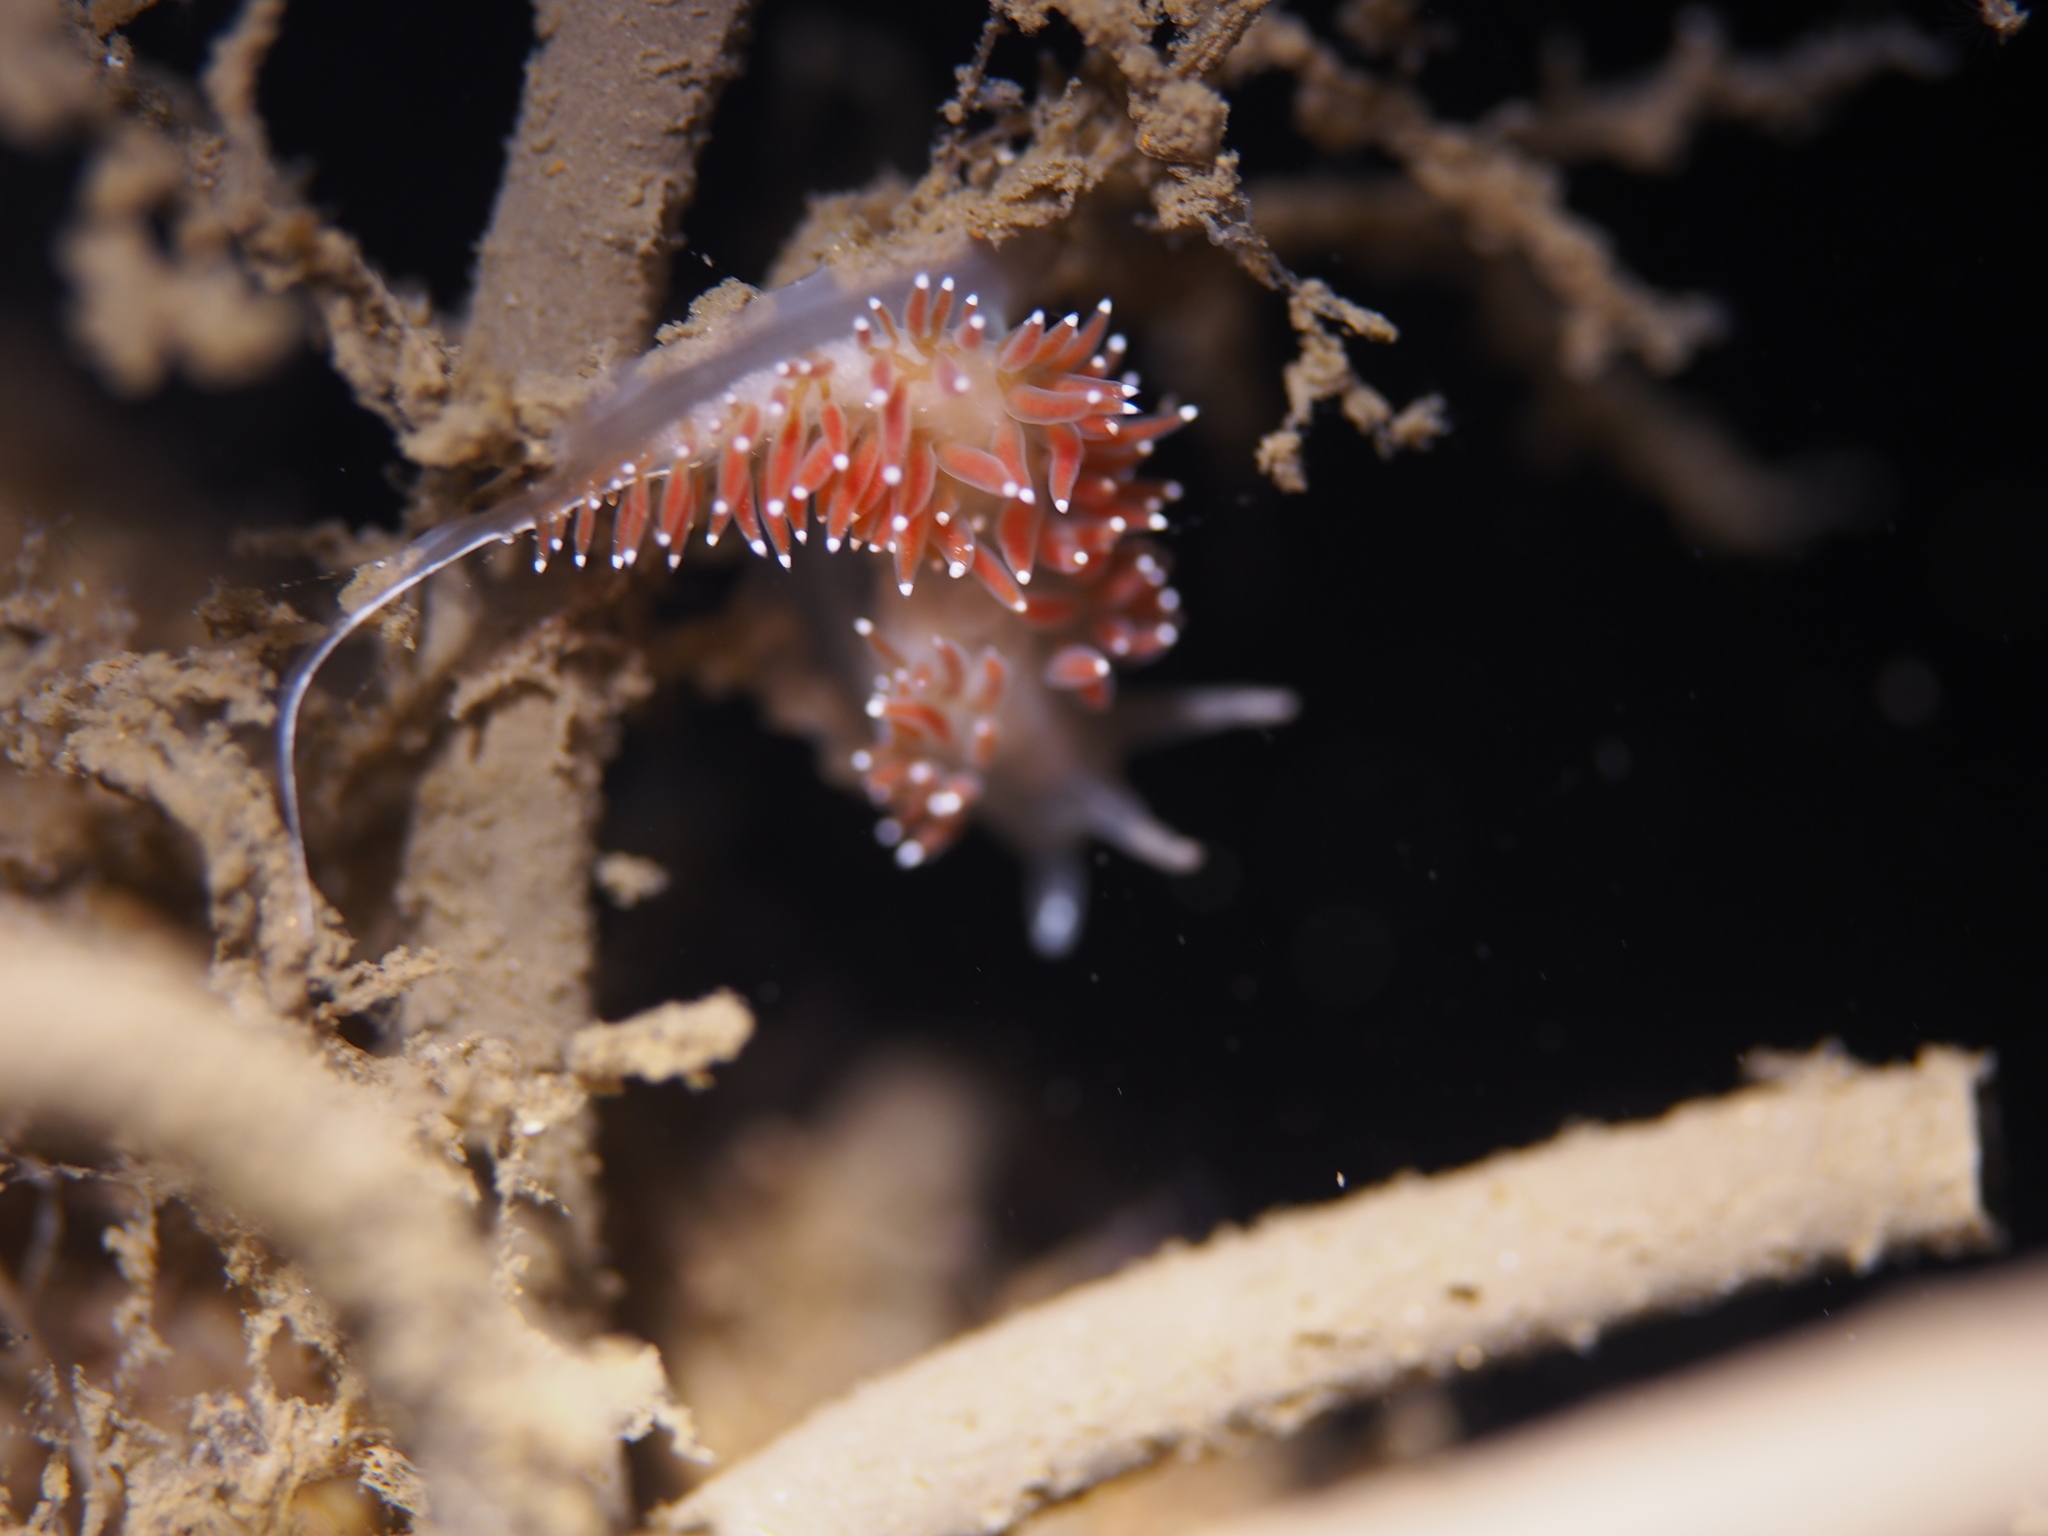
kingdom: Animalia
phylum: Mollusca
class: Gastropoda
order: Nudibranchia
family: Coryphellidae
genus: Coryphella
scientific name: Coryphella verrucosa
